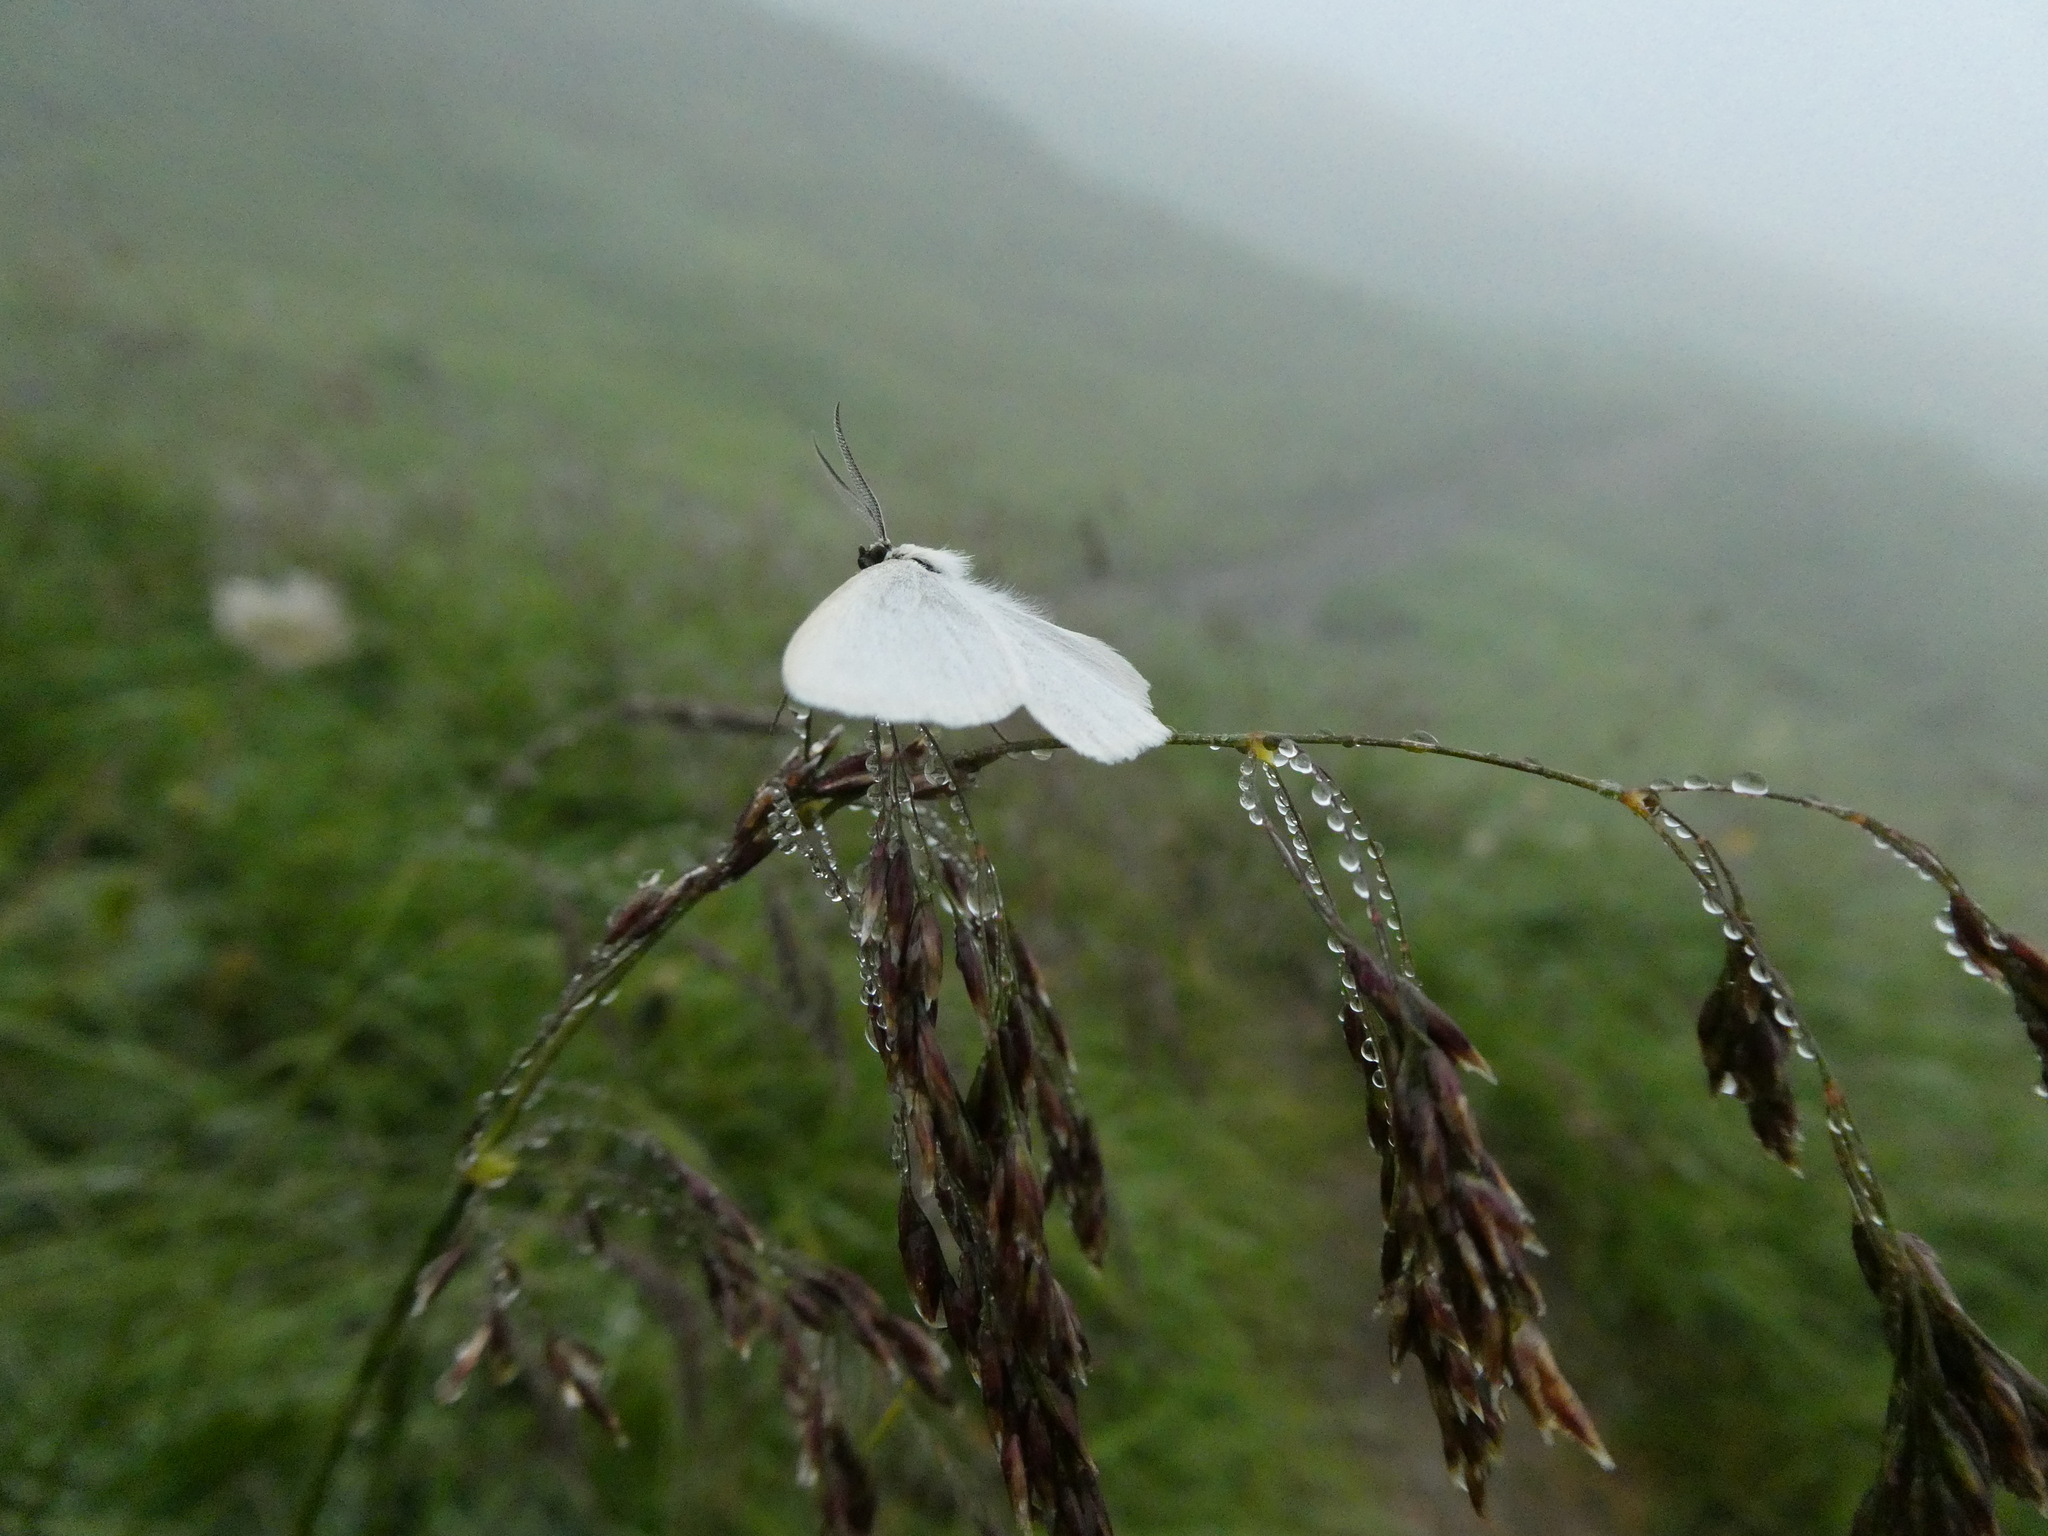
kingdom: Animalia
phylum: Arthropoda
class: Insecta
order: Lepidoptera
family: Geometridae
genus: Crocota
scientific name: Crocota niveata
